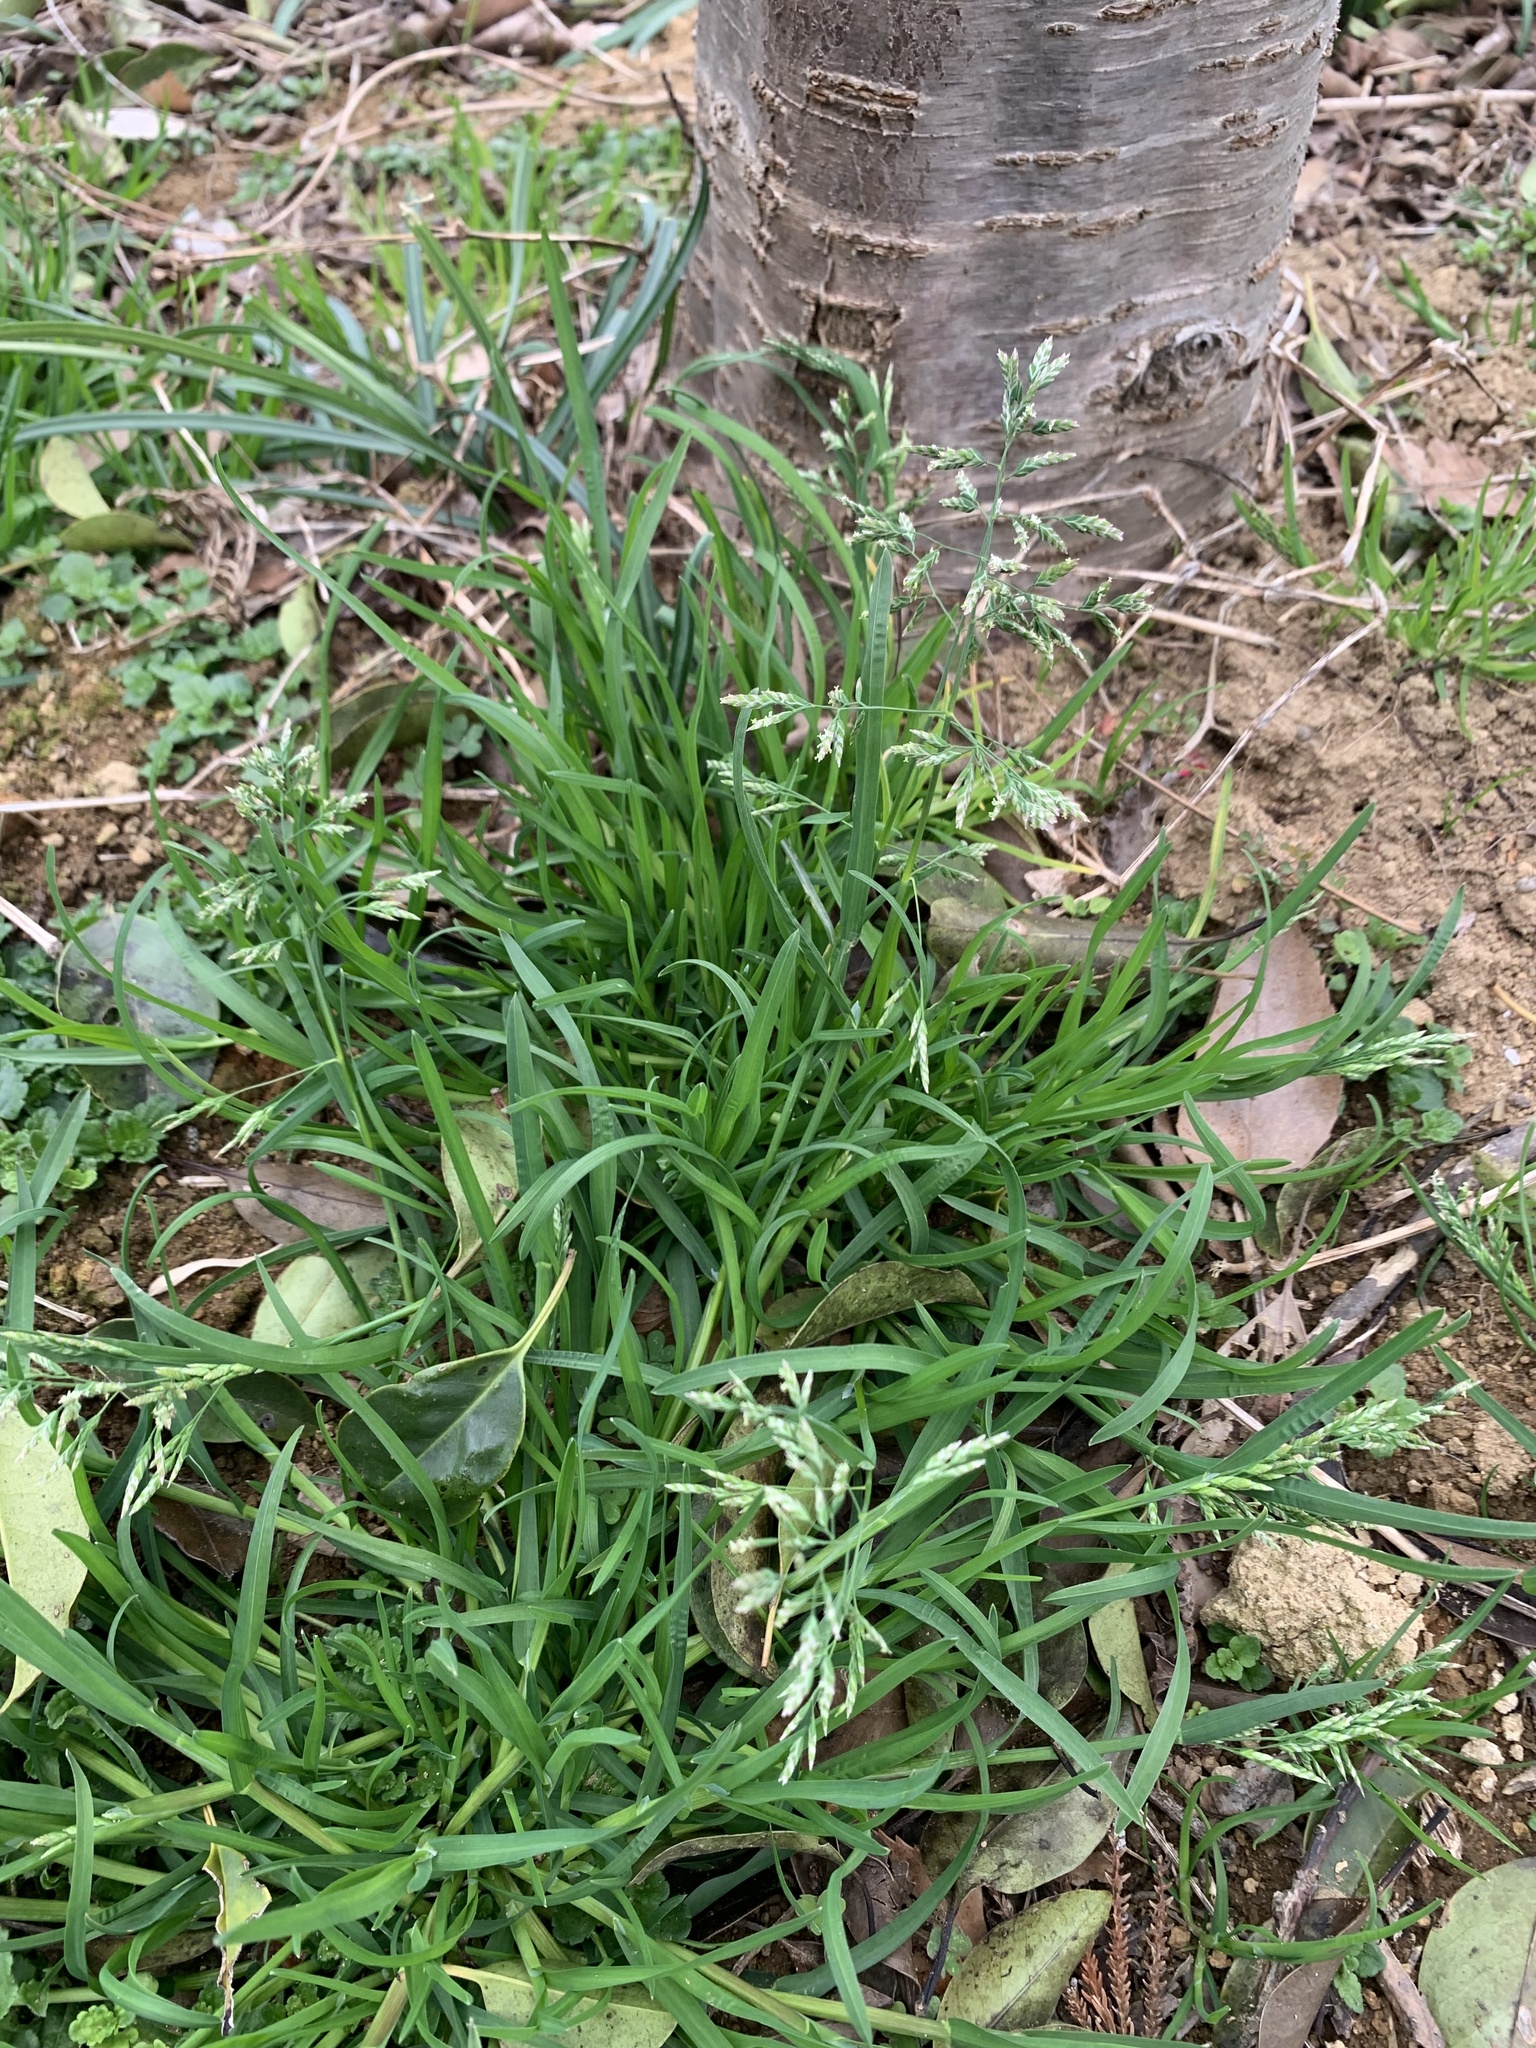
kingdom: Plantae
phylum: Tracheophyta
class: Liliopsida
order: Poales
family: Poaceae
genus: Poa
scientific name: Poa annua
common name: Annual bluegrass
